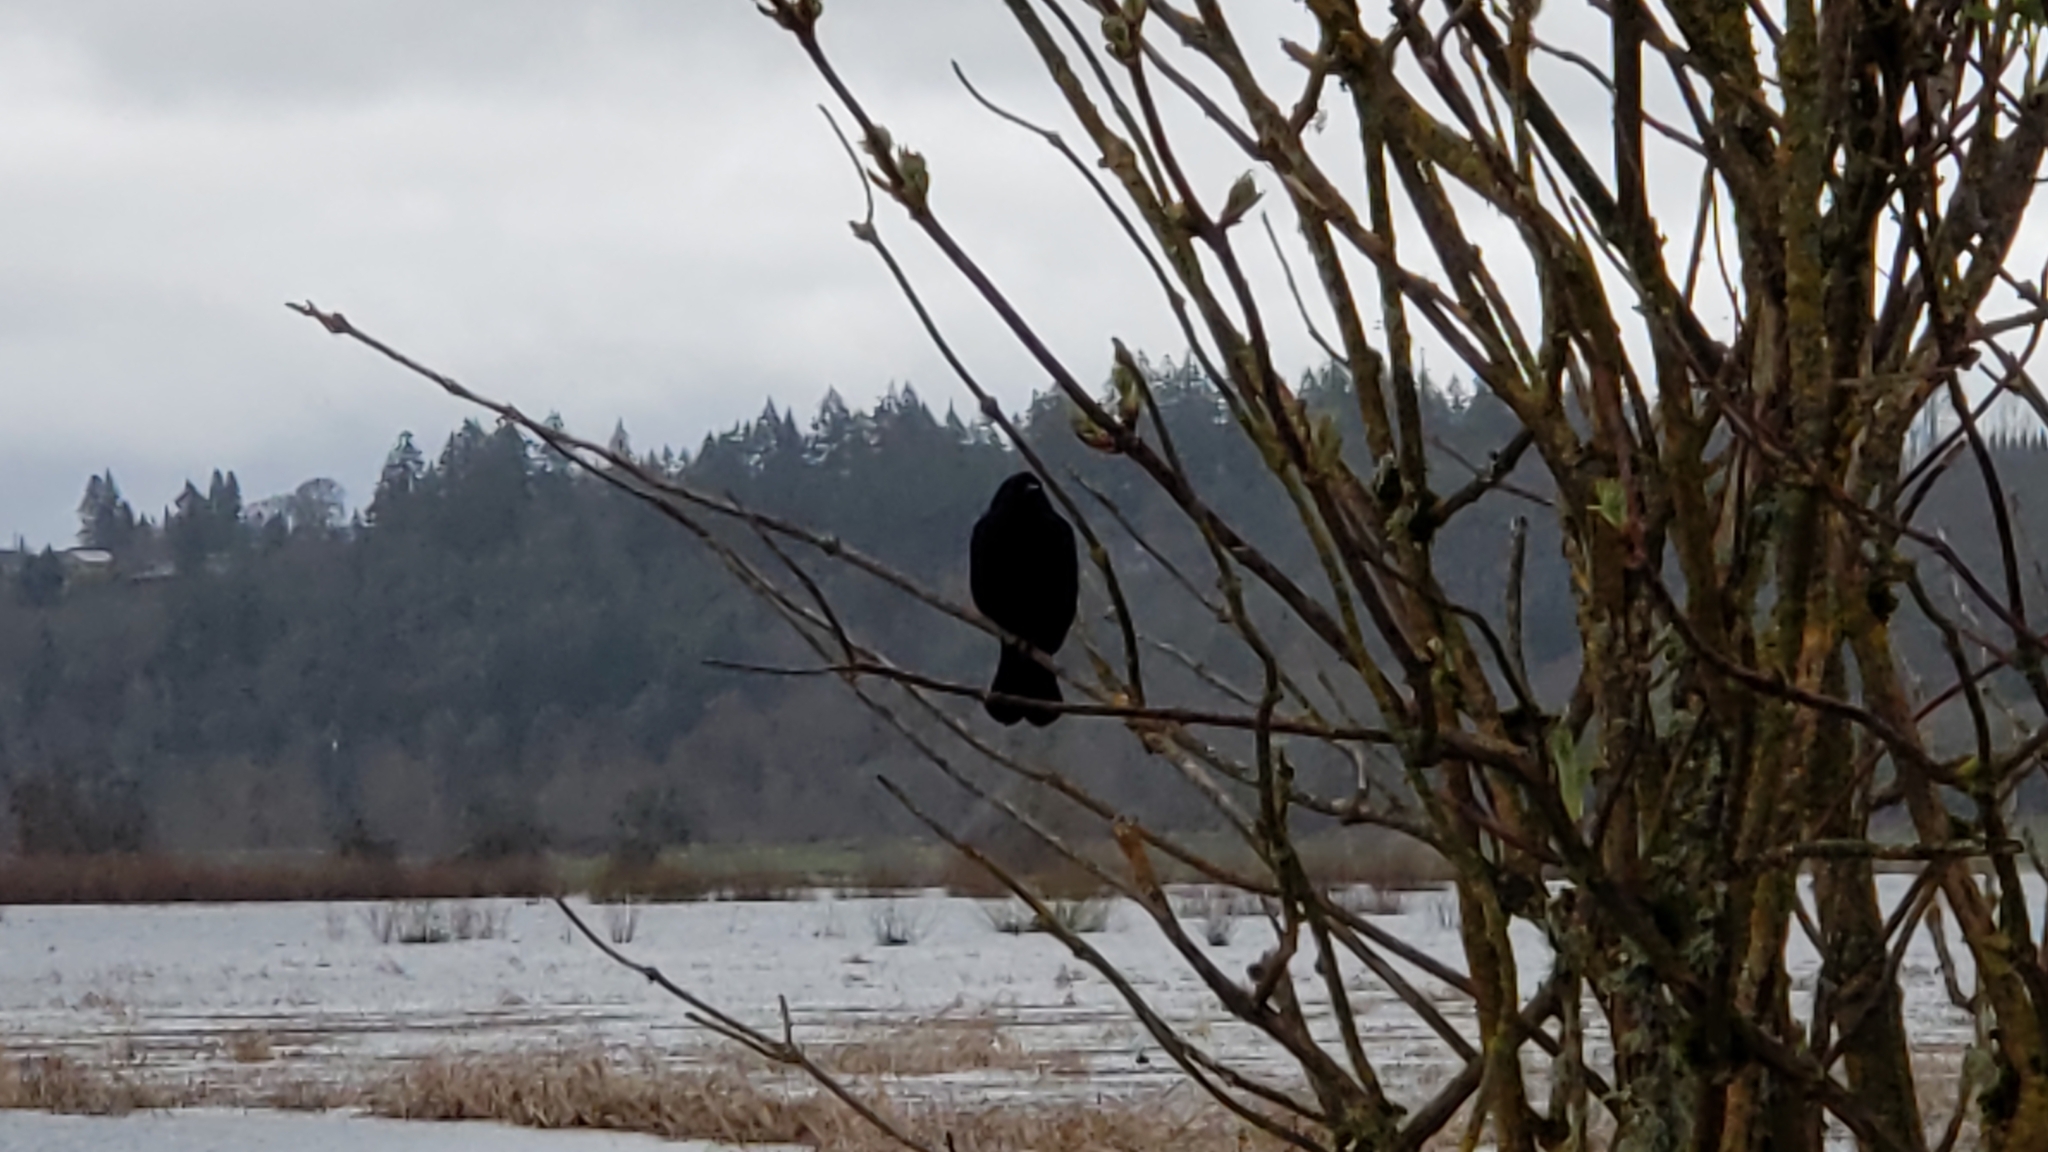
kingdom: Animalia
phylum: Chordata
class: Aves
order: Passeriformes
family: Icteridae
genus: Agelaius
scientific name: Agelaius phoeniceus
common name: Red-winged blackbird
